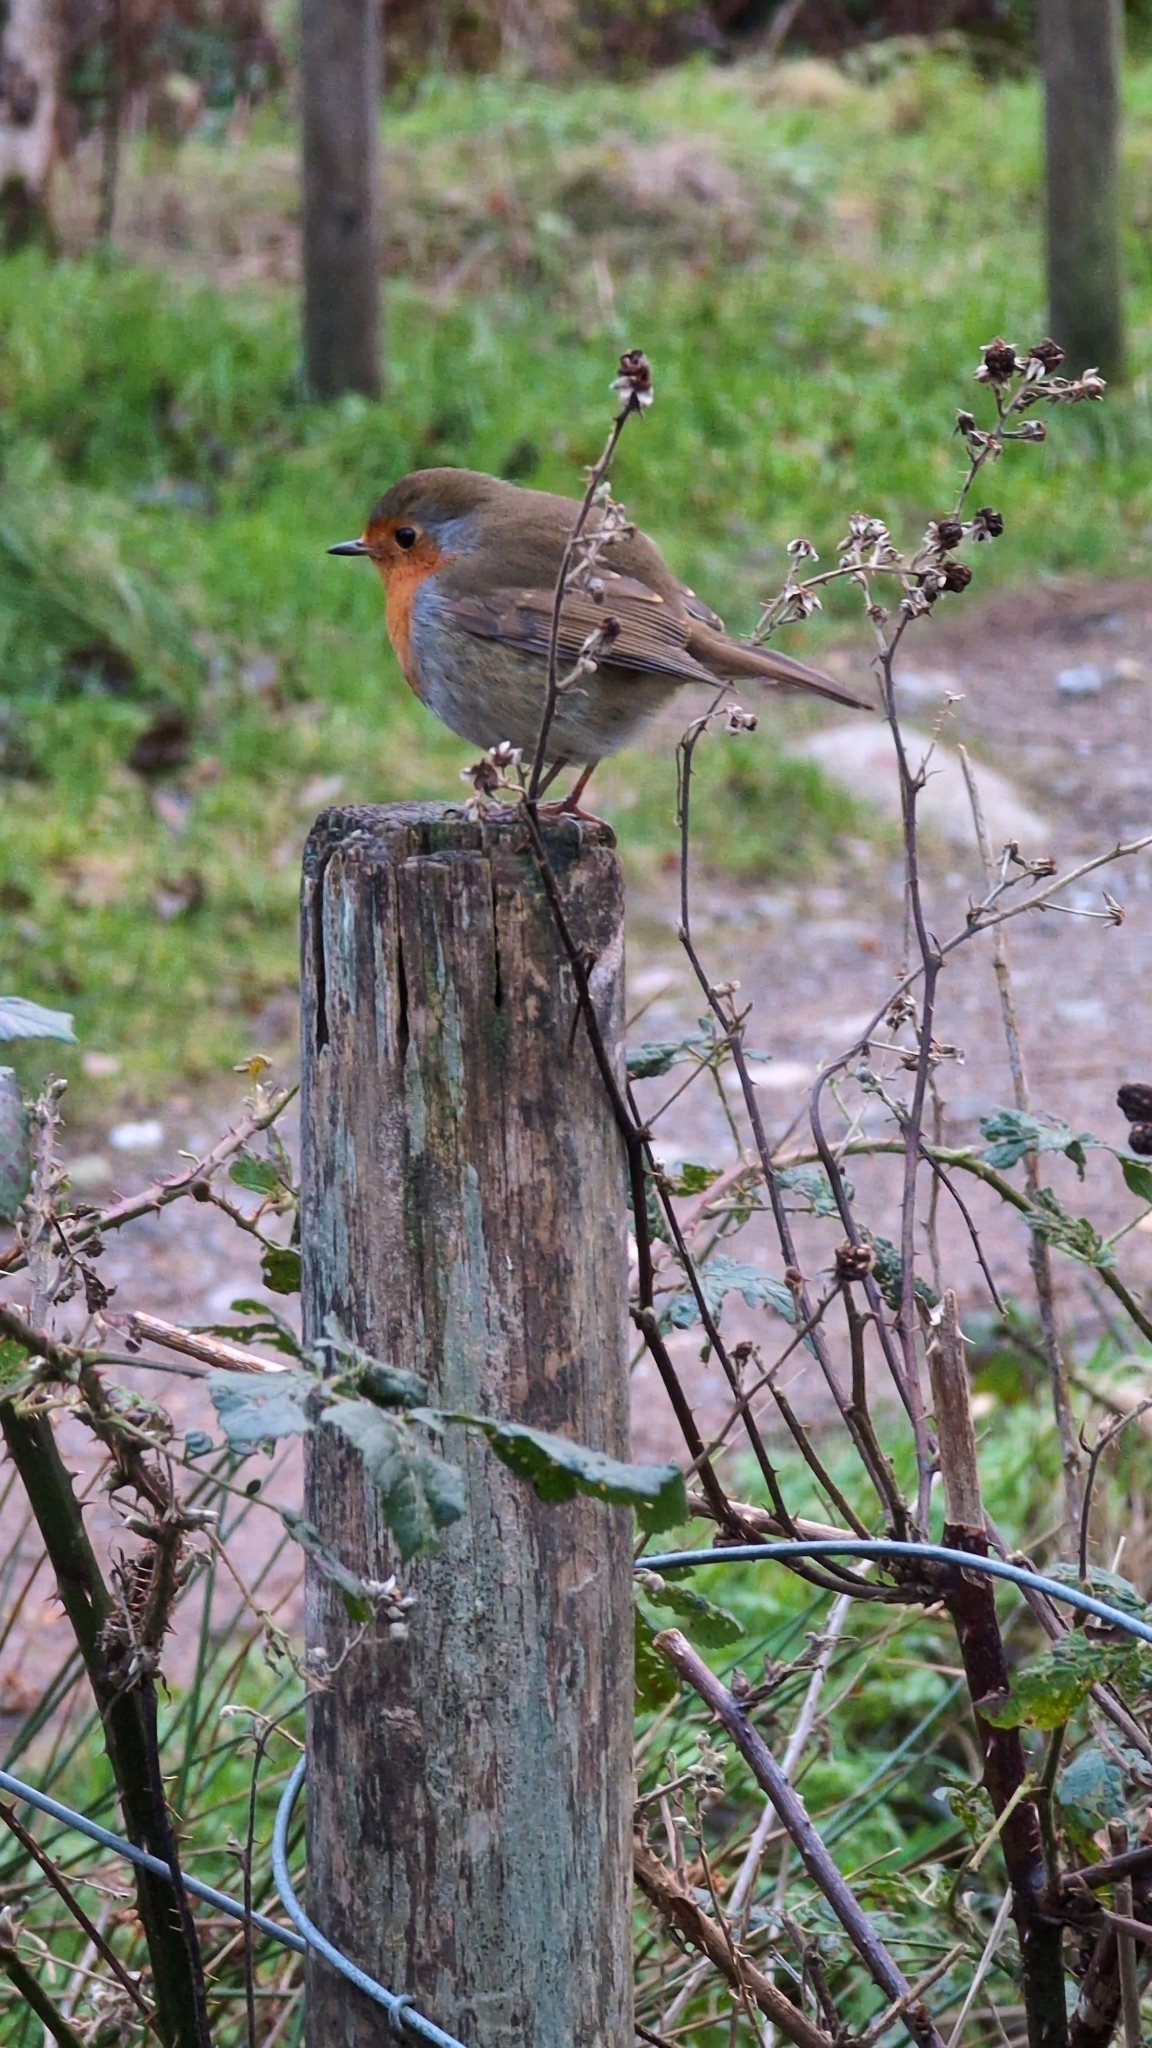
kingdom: Animalia
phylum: Chordata
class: Aves
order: Passeriformes
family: Muscicapidae
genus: Erithacus
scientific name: Erithacus rubecula
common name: European robin
